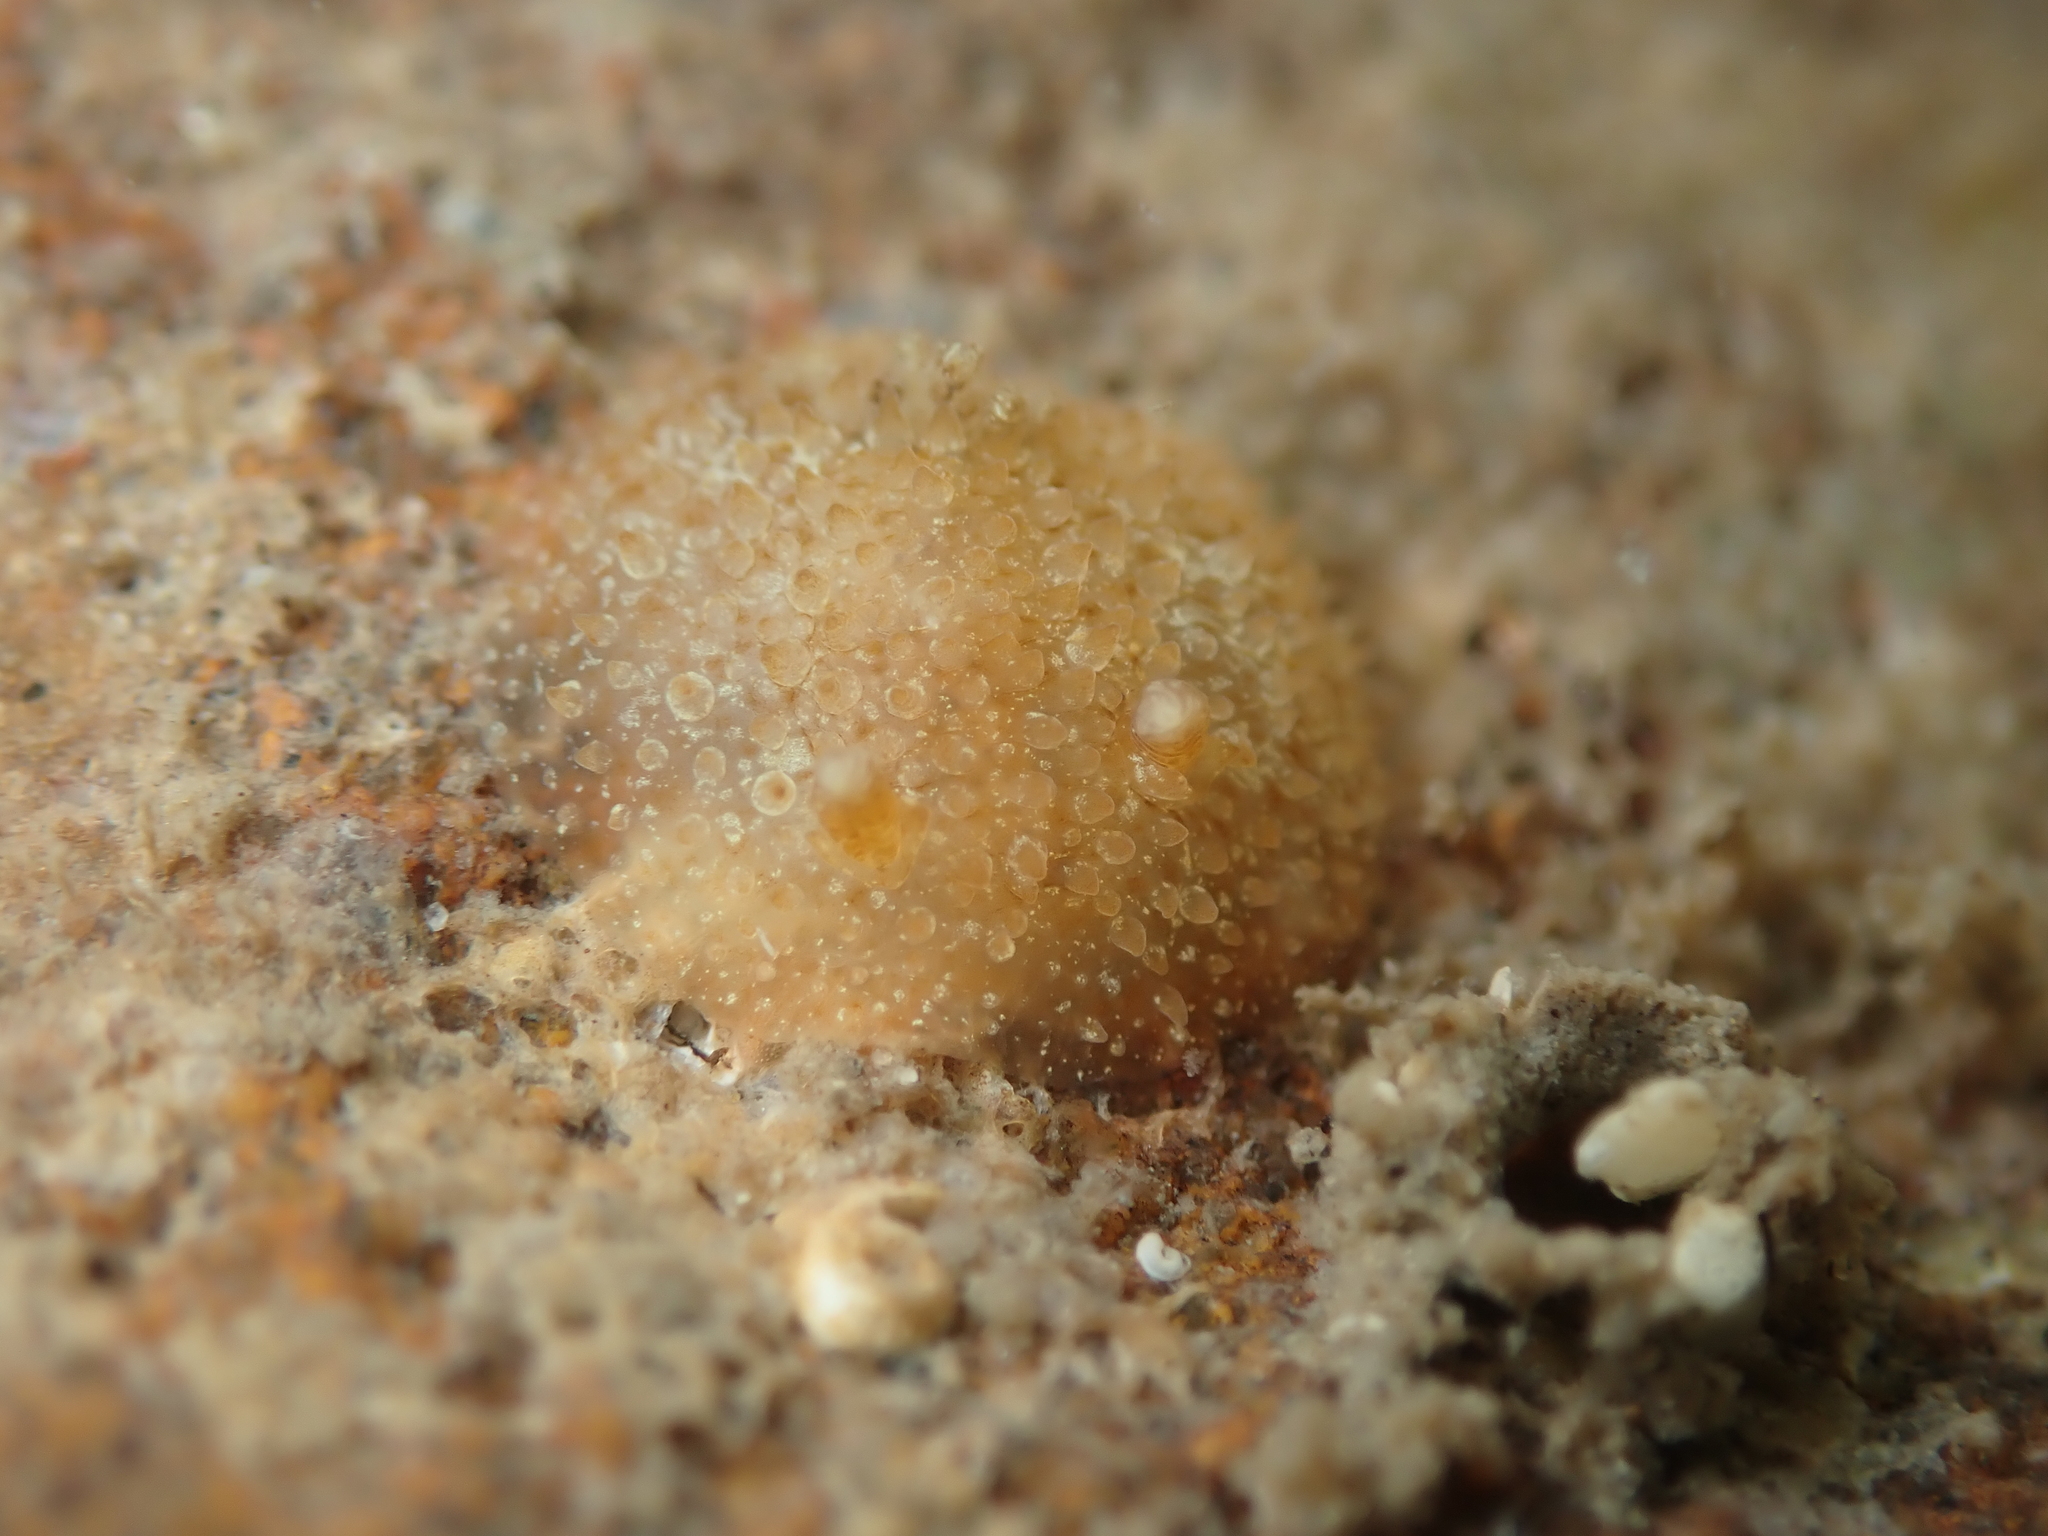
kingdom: Animalia
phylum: Mollusca
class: Gastropoda
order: Nudibranchia
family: Onchidorididae
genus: Acanthodoris
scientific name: Acanthodoris mollicella
